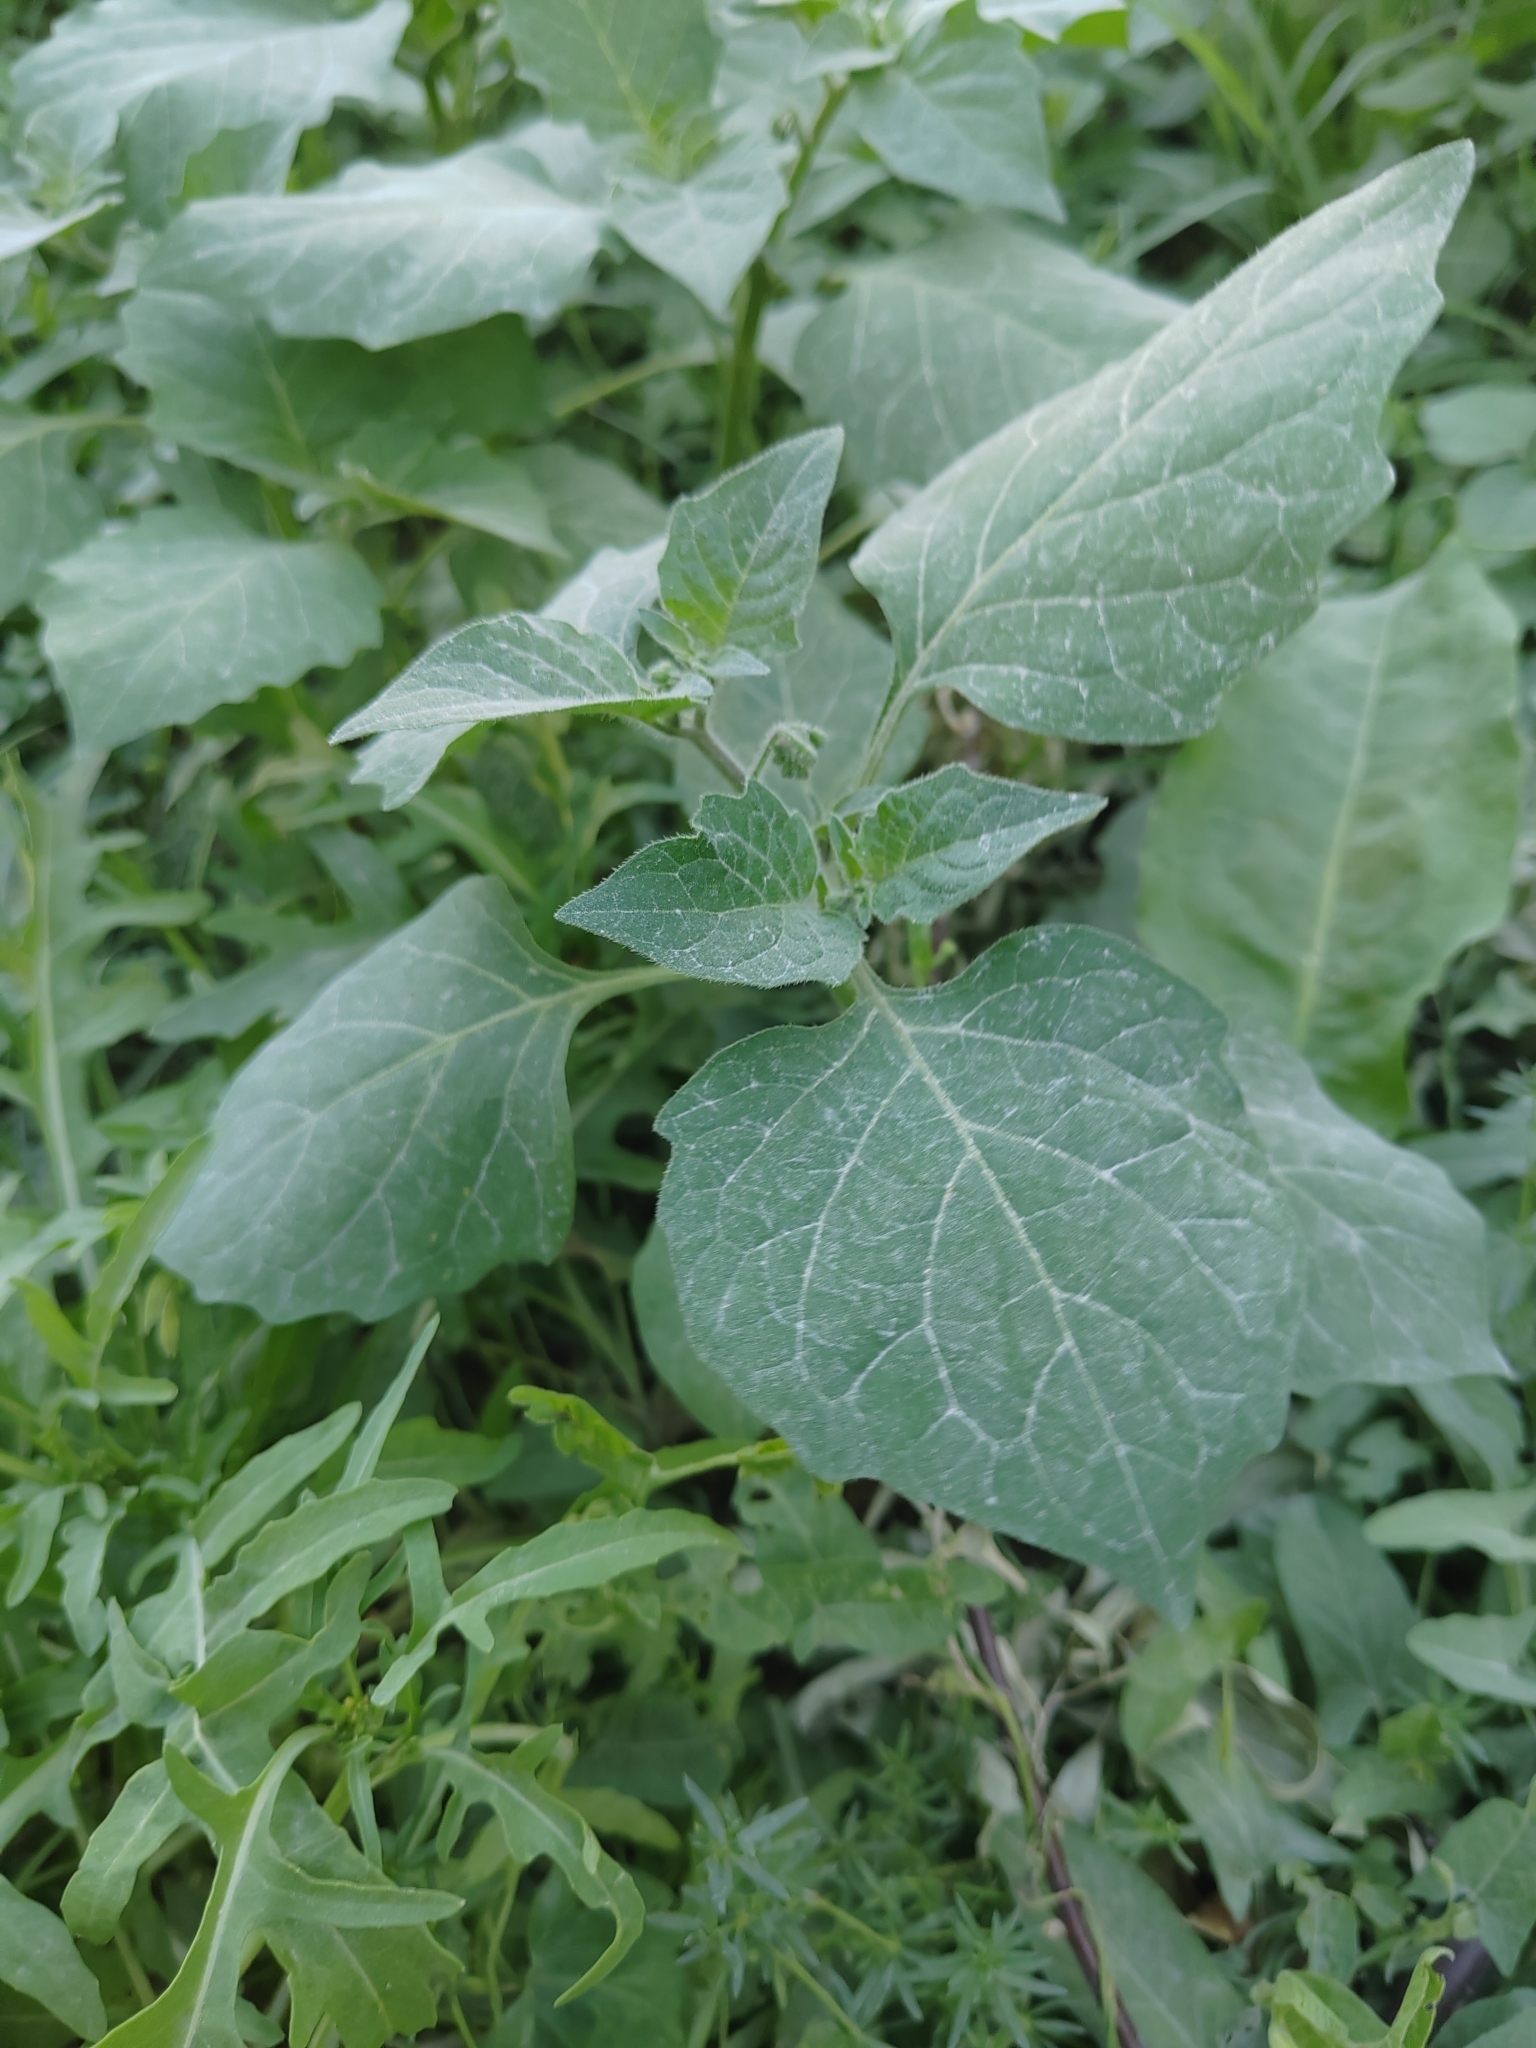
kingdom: Plantae
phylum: Tracheophyta
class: Magnoliopsida
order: Solanales
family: Solanaceae
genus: Solanum
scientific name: Solanum nigrum
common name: Black nightshade
